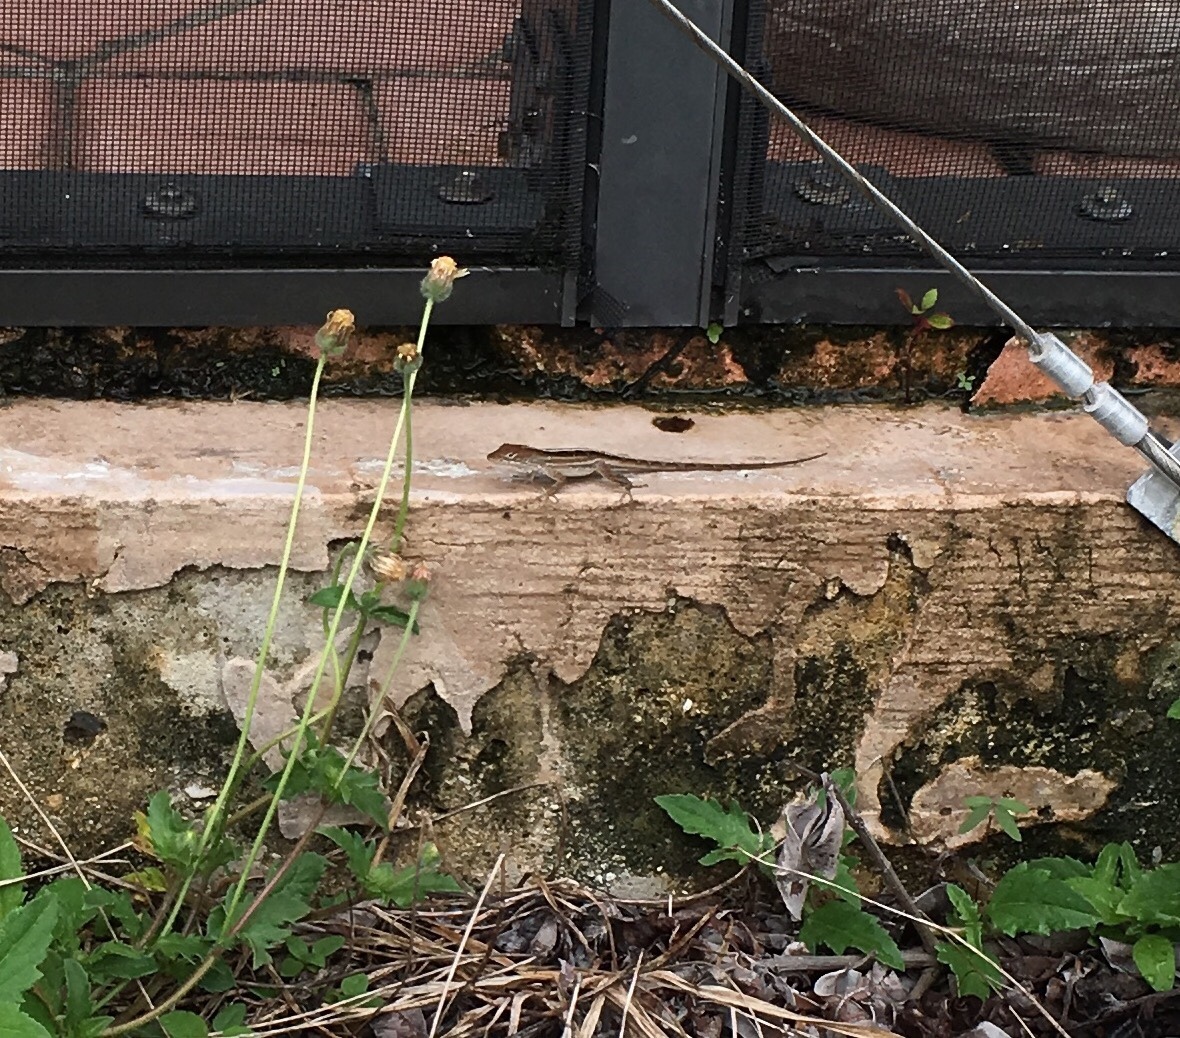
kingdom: Animalia
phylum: Chordata
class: Squamata
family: Dactyloidae
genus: Anolis
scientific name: Anolis sagrei
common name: Brown anole
